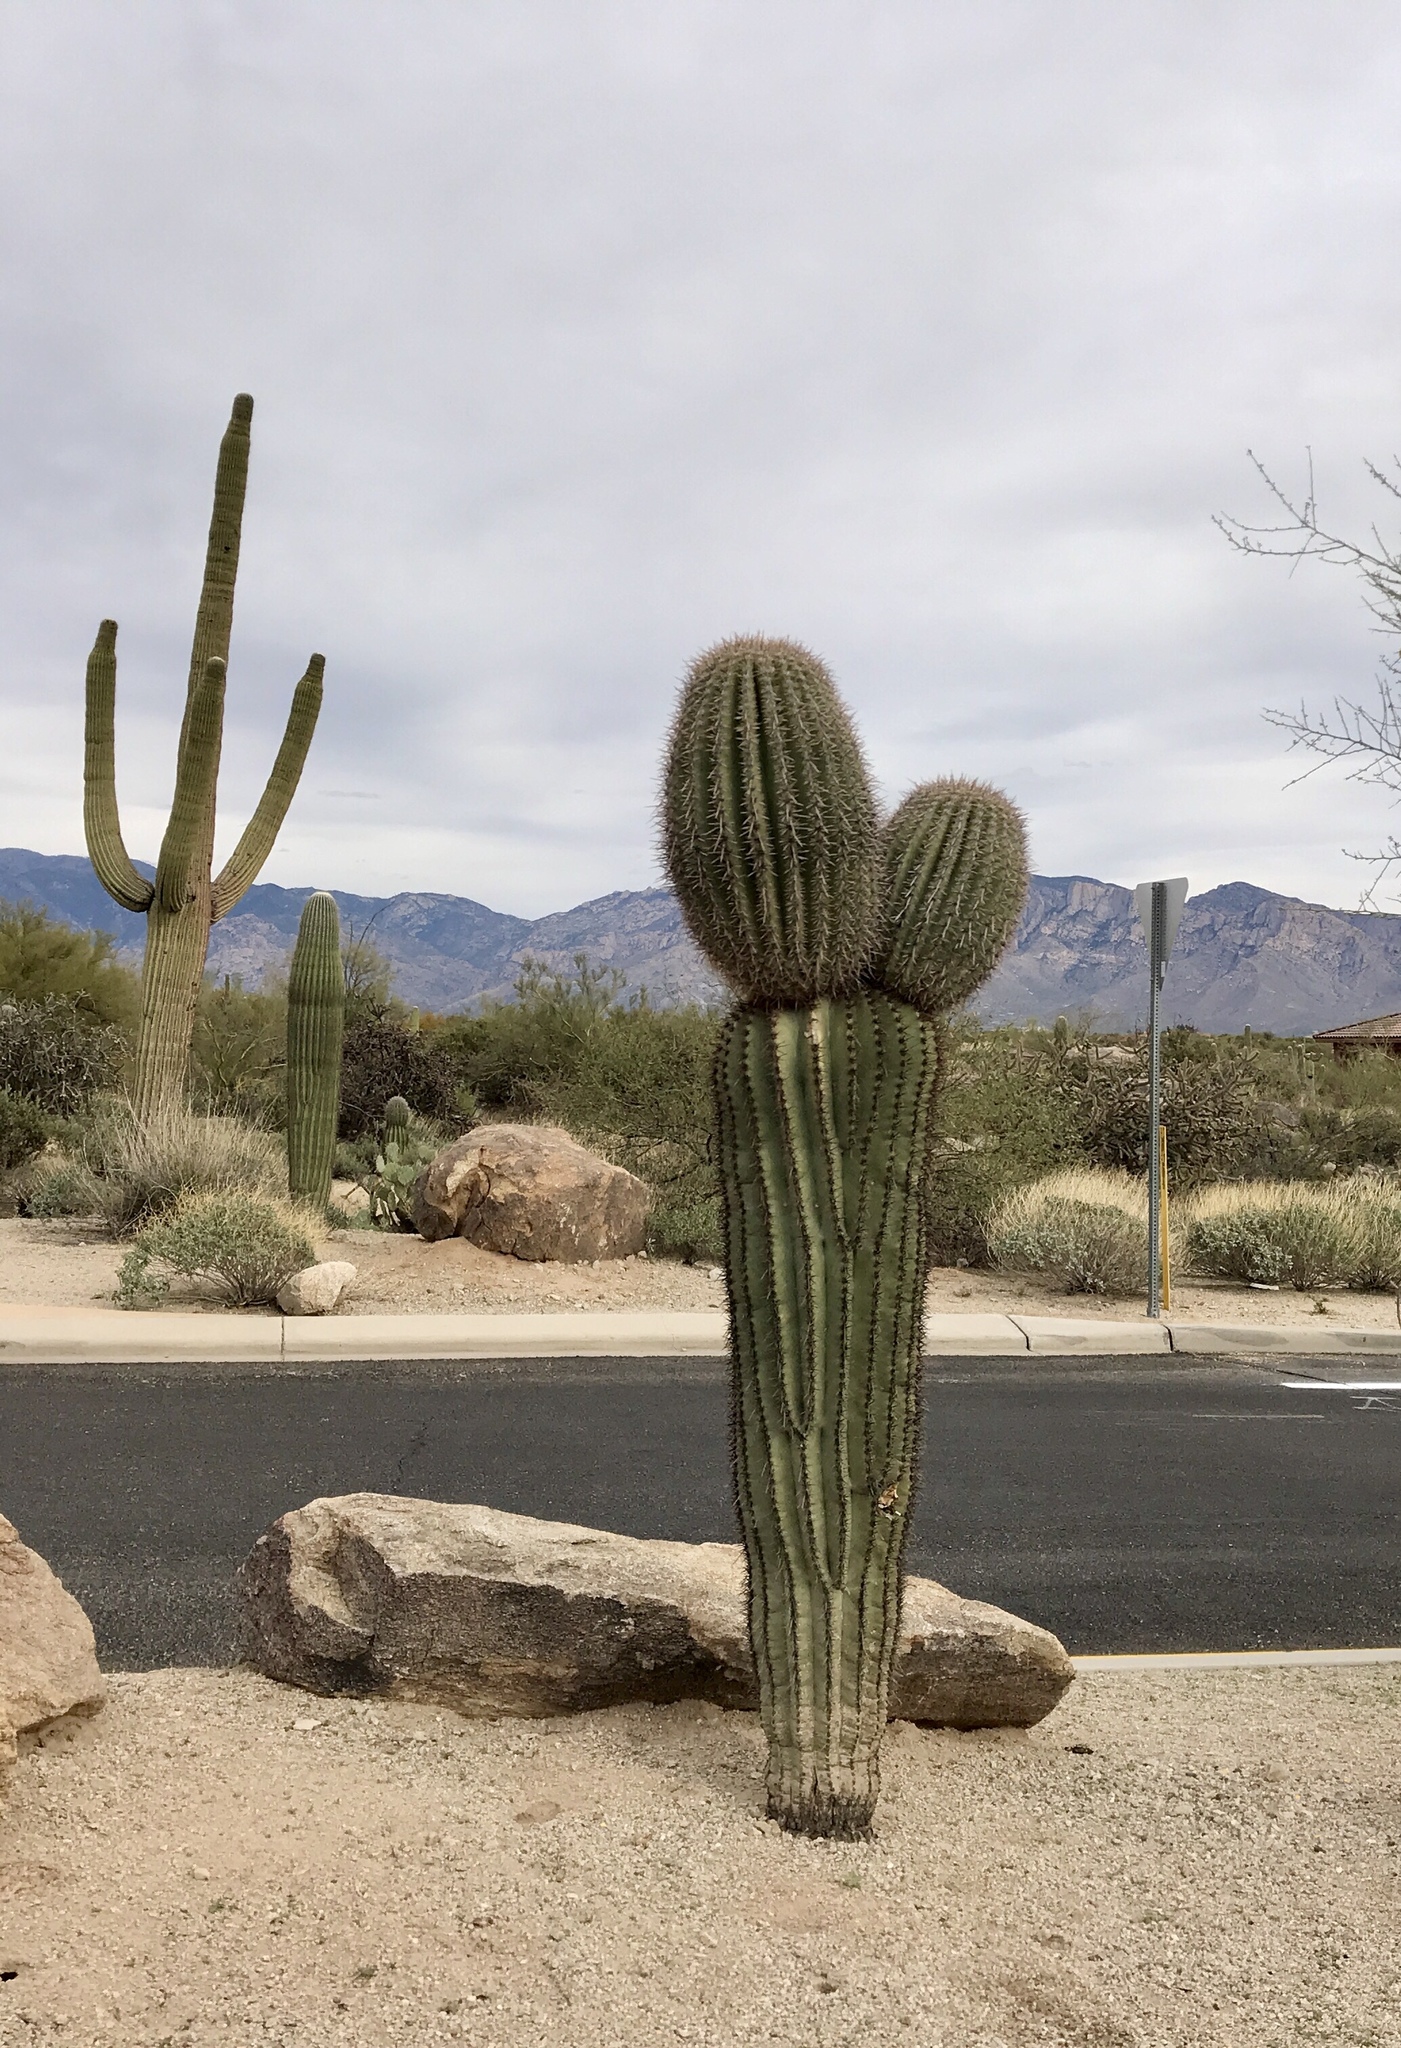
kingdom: Plantae
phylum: Tracheophyta
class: Magnoliopsida
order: Caryophyllales
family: Cactaceae
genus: Carnegiea
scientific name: Carnegiea gigantea
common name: Saguaro
